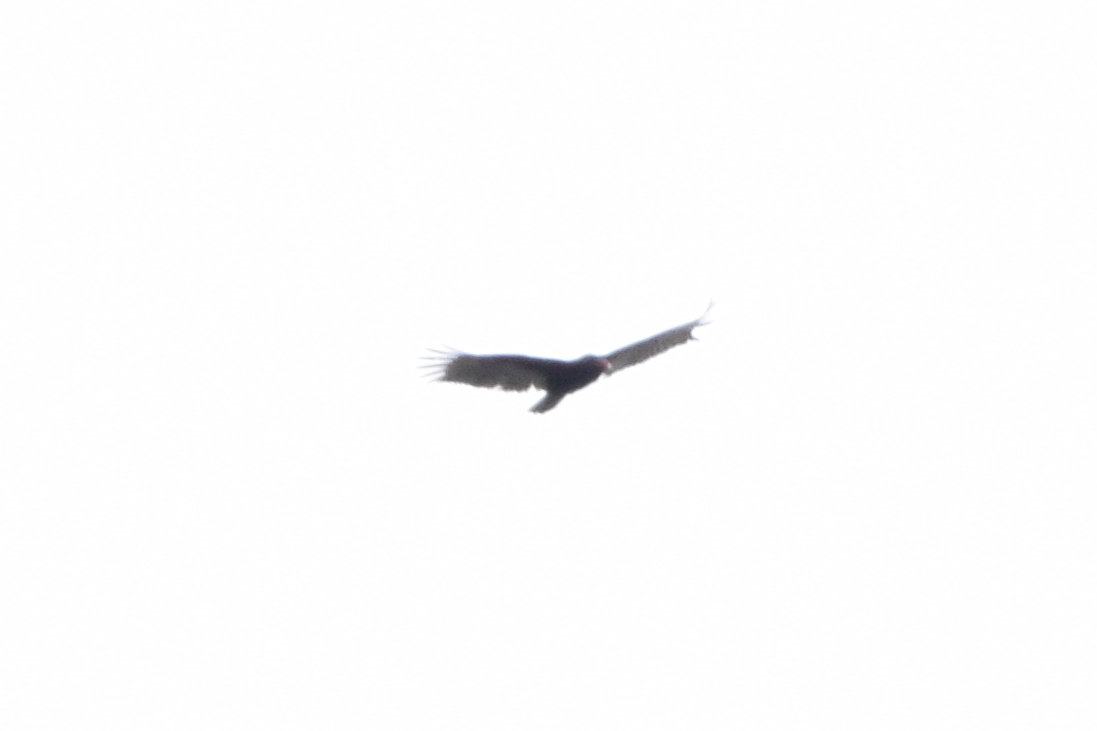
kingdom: Animalia
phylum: Chordata
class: Aves
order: Accipitriformes
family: Cathartidae
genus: Cathartes
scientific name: Cathartes aura
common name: Turkey vulture
